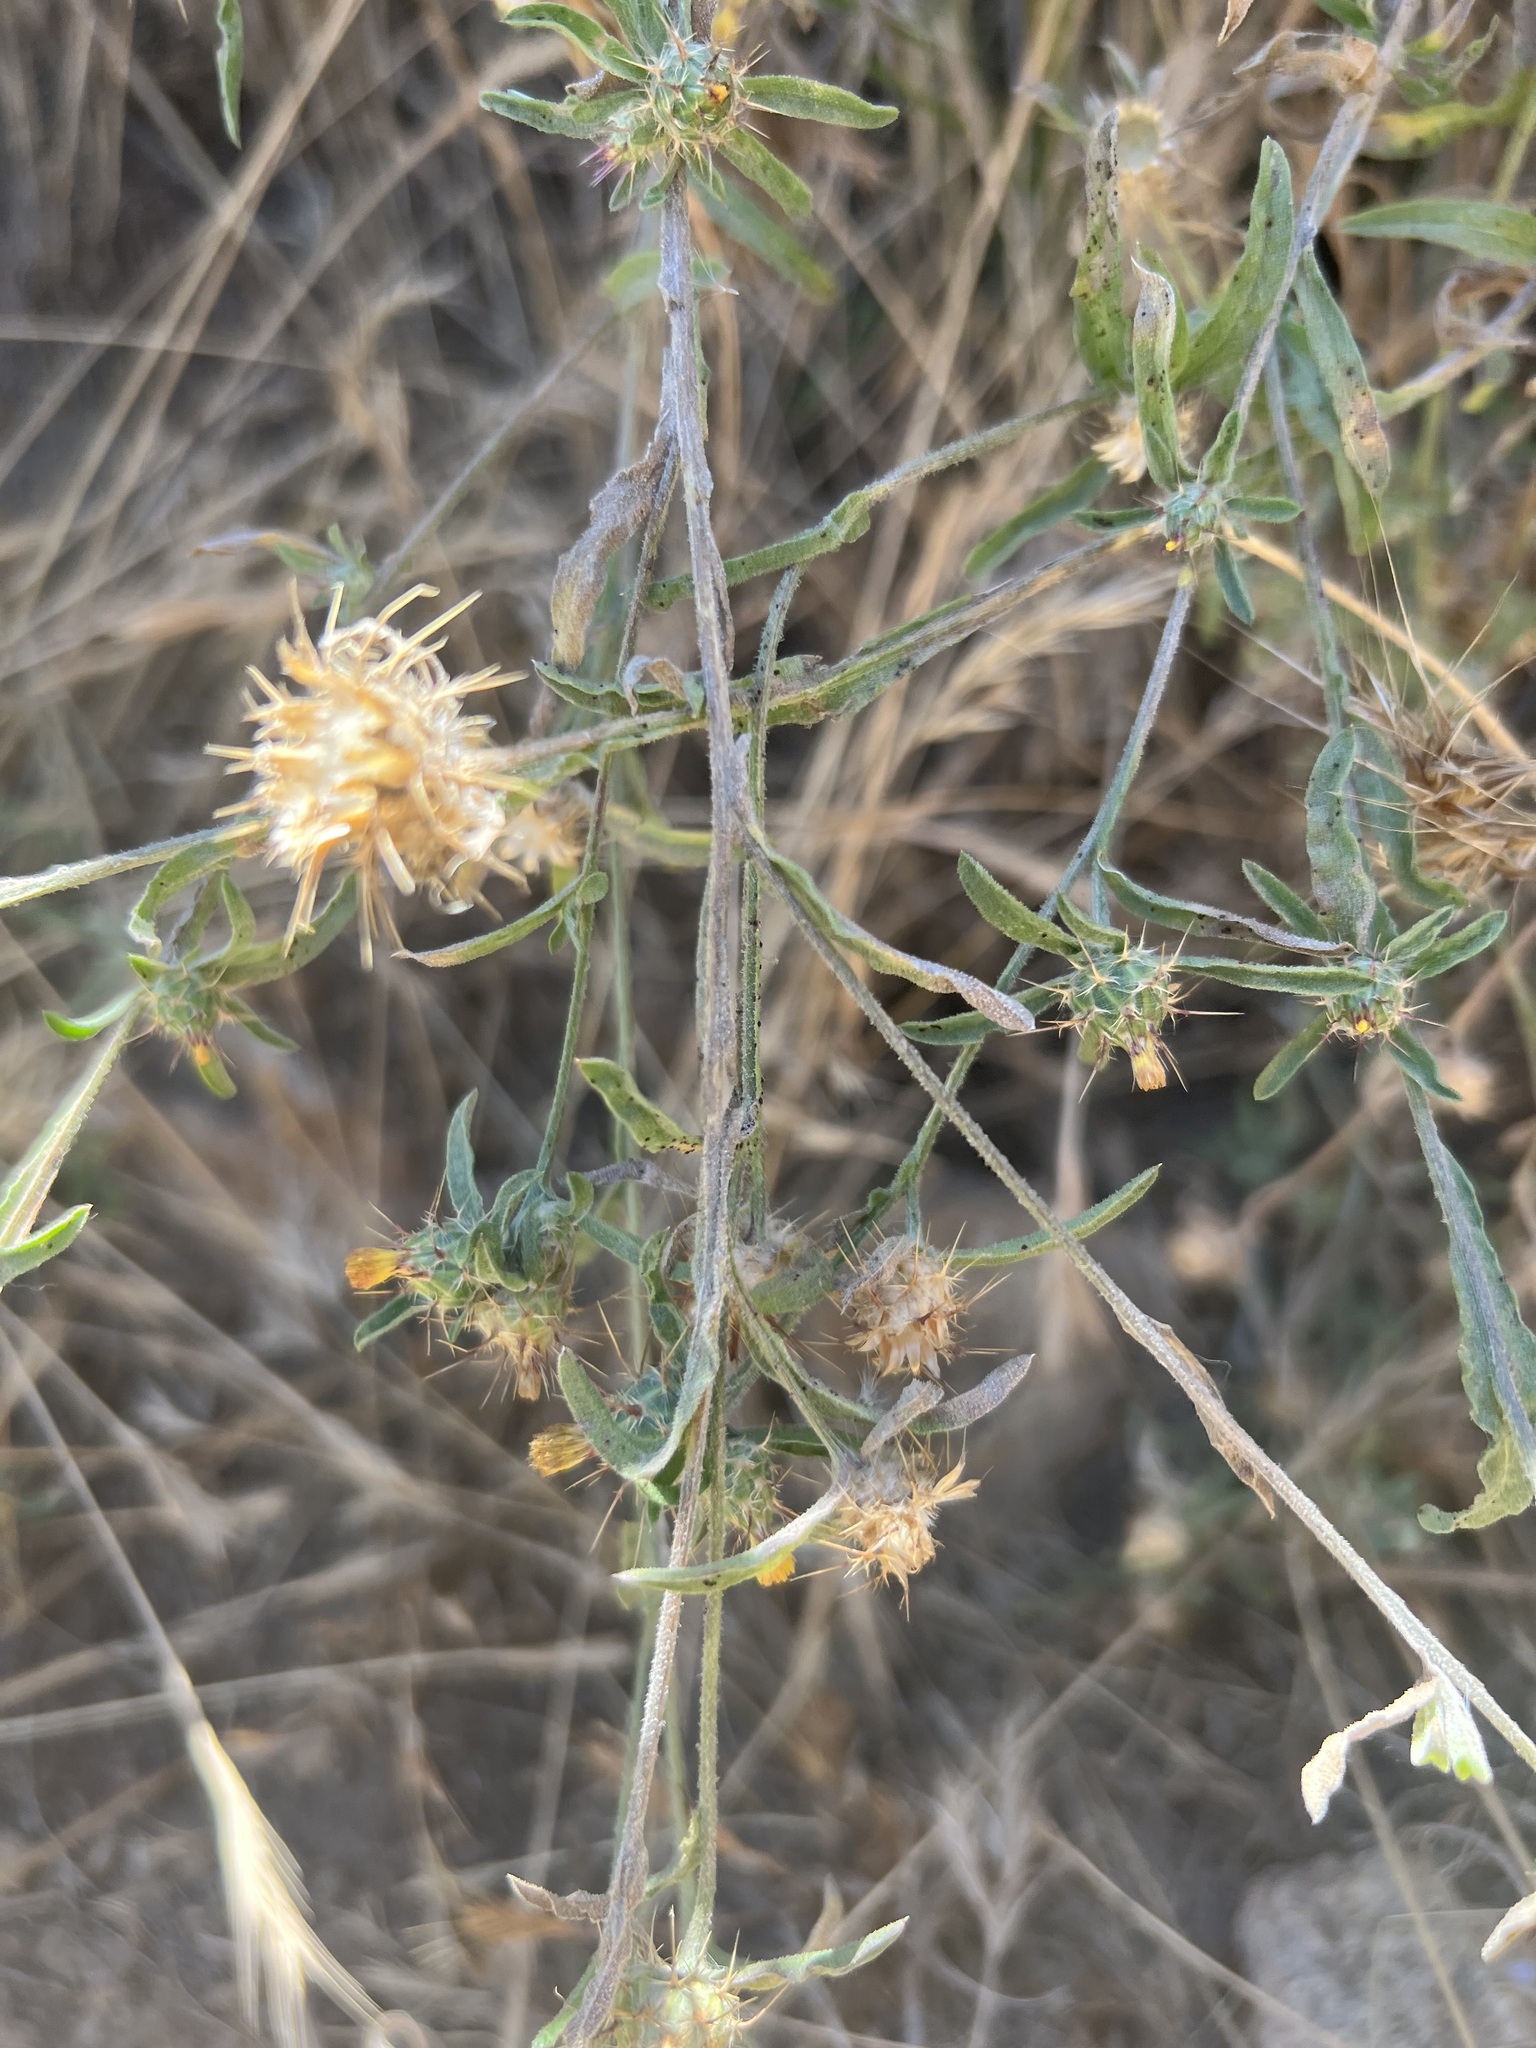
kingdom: Plantae
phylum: Tracheophyta
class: Magnoliopsida
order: Asterales
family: Asteraceae
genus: Centaurea
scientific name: Centaurea melitensis
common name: Maltese star-thistle
